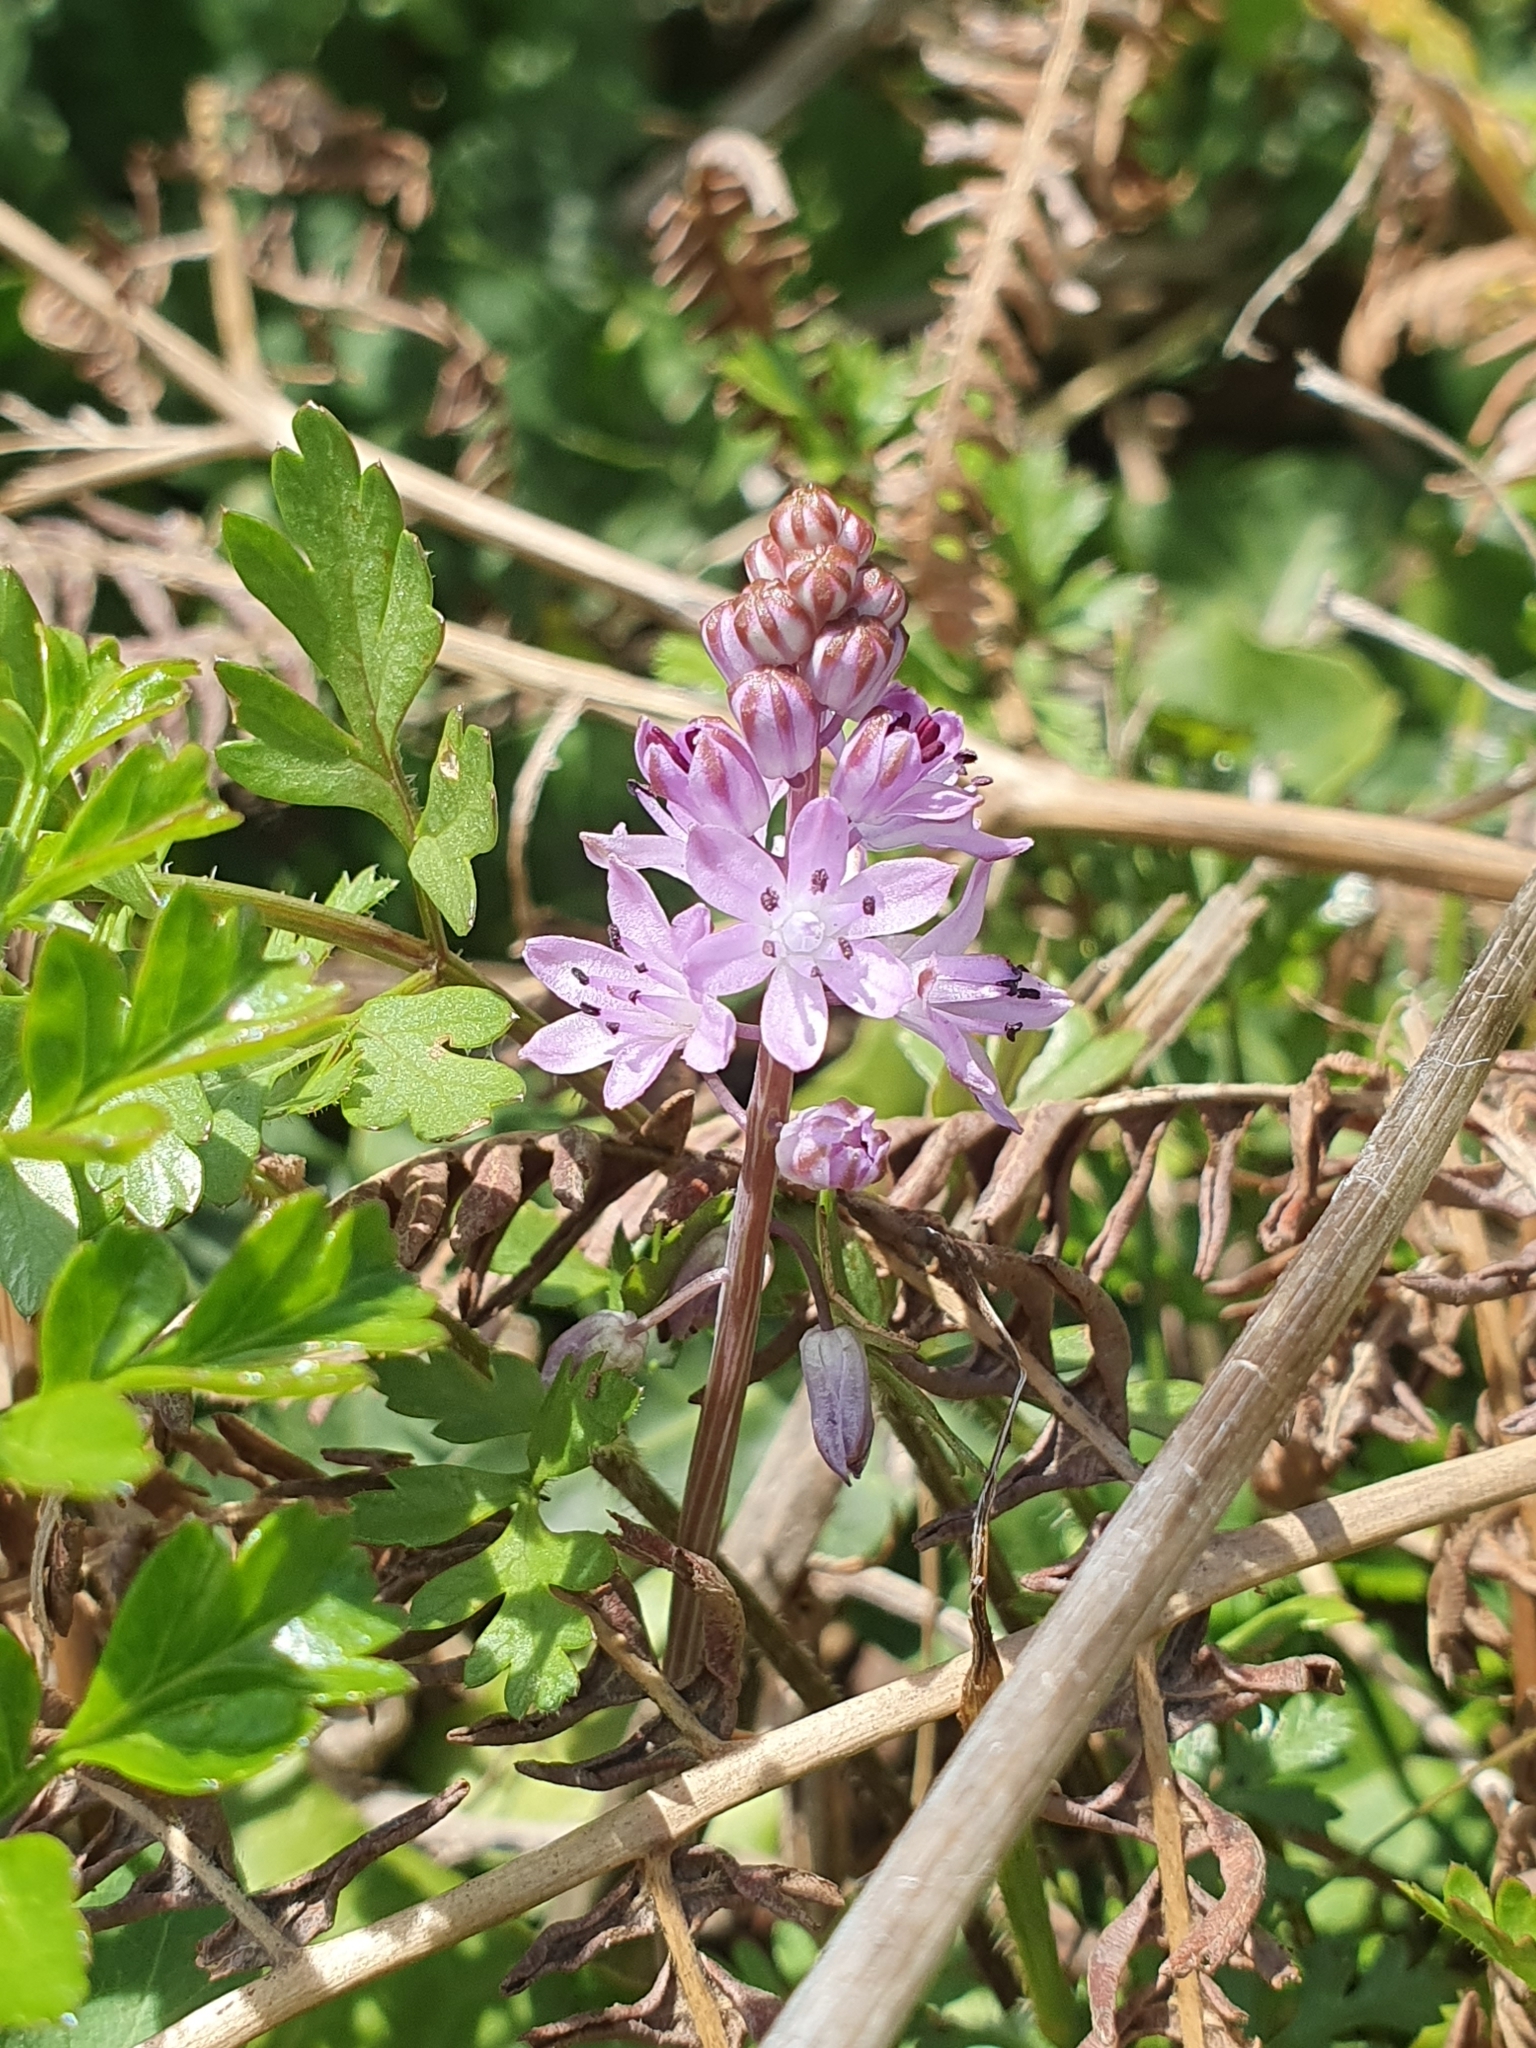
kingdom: Plantae
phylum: Tracheophyta
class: Liliopsida
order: Asparagales
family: Asparagaceae
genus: Prospero
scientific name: Prospero autumnale
